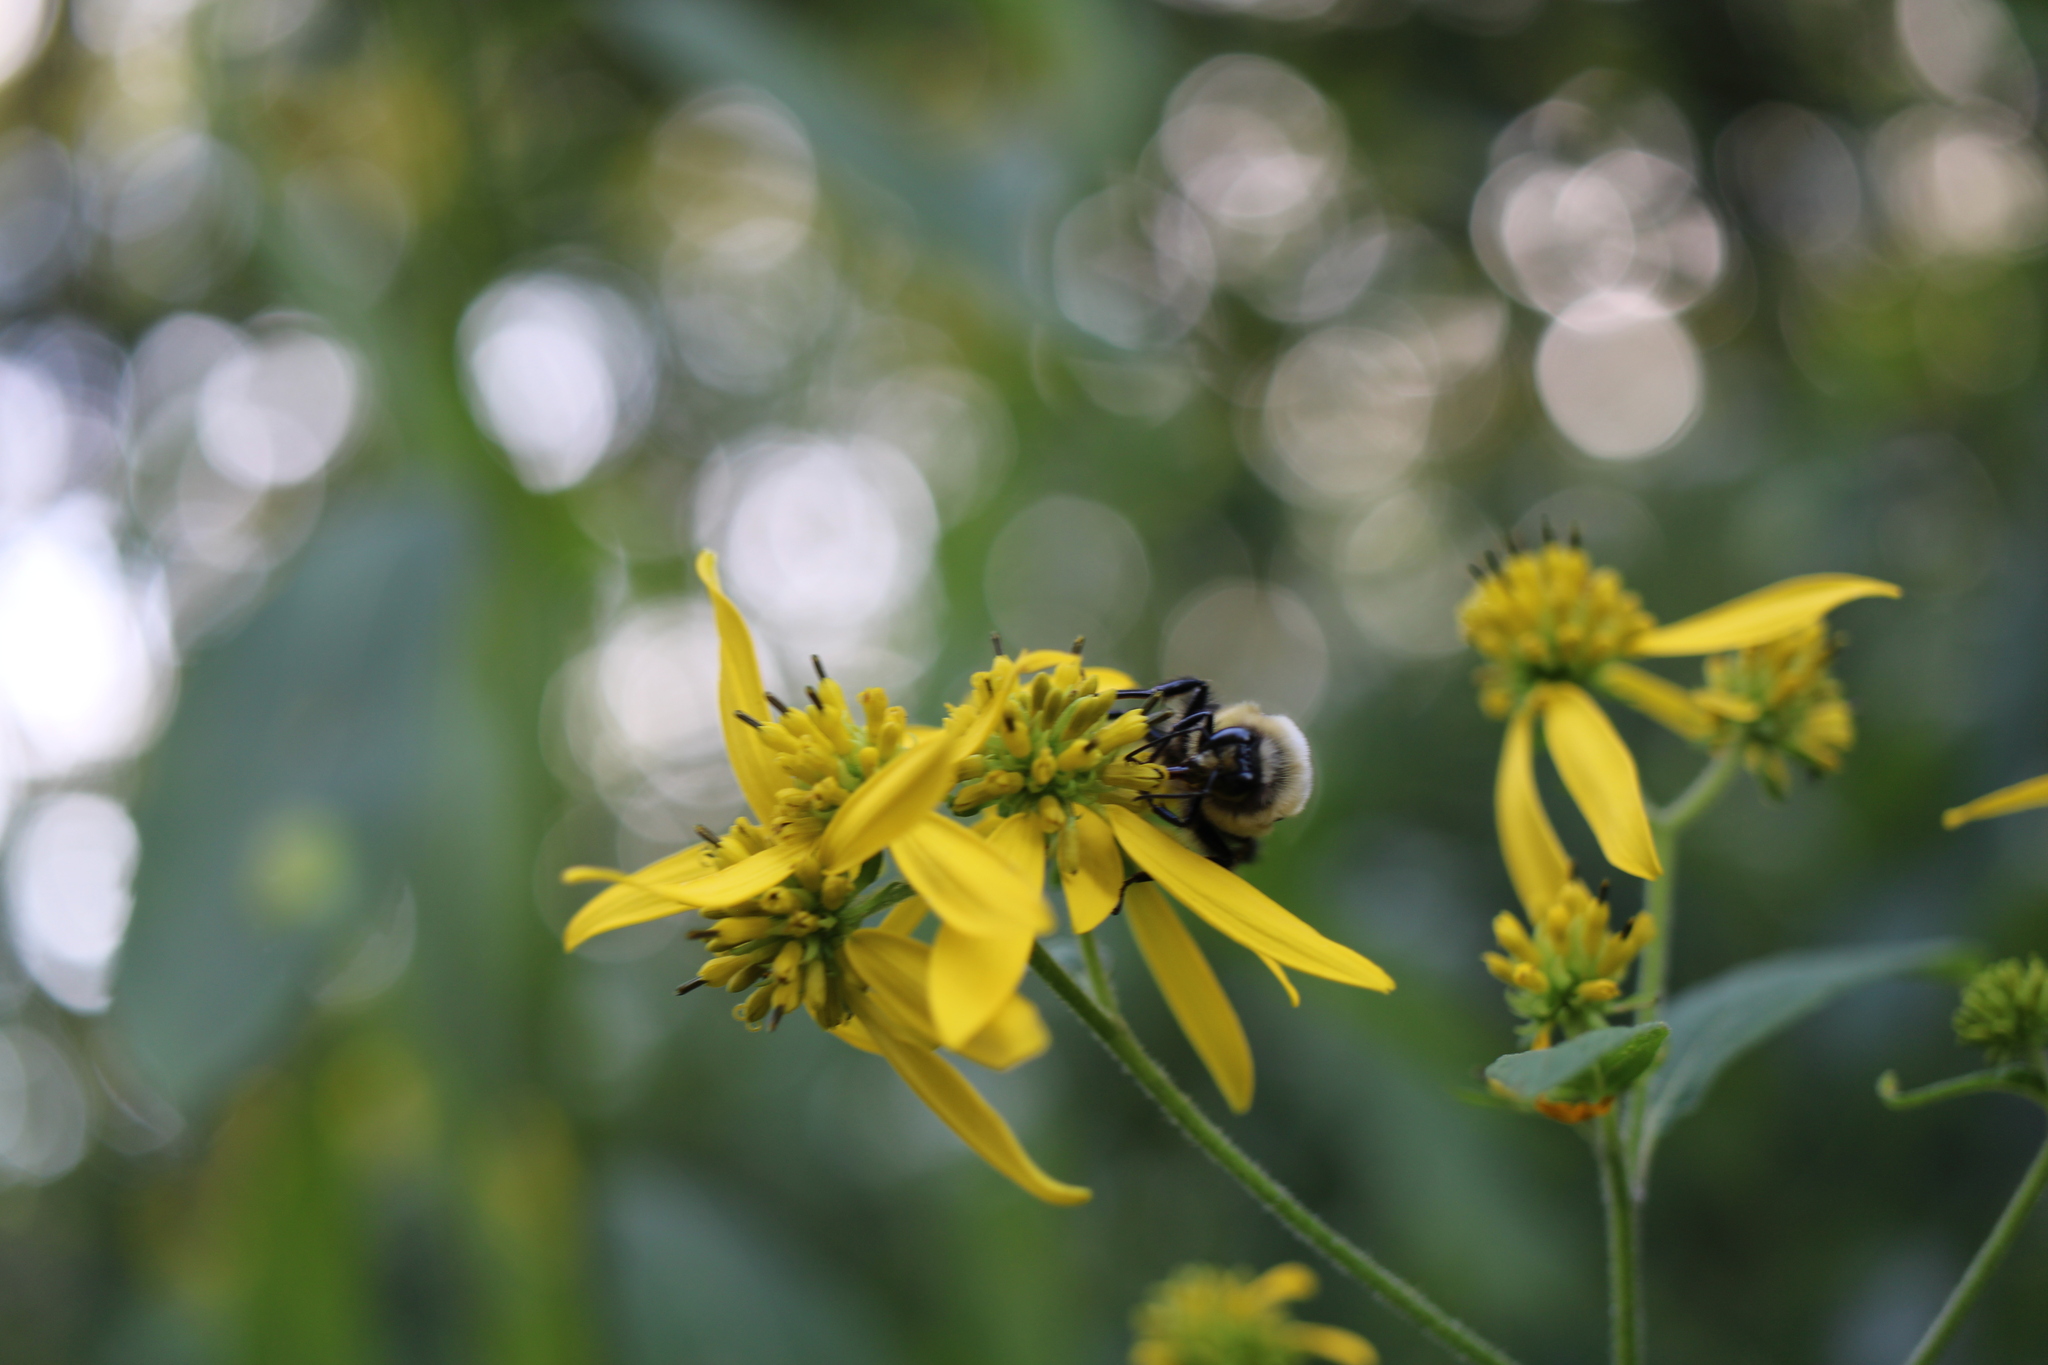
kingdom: Animalia
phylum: Arthropoda
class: Insecta
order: Hymenoptera
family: Apidae
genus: Bombus
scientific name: Bombus griseocollis
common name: Brown-belted bumble bee
